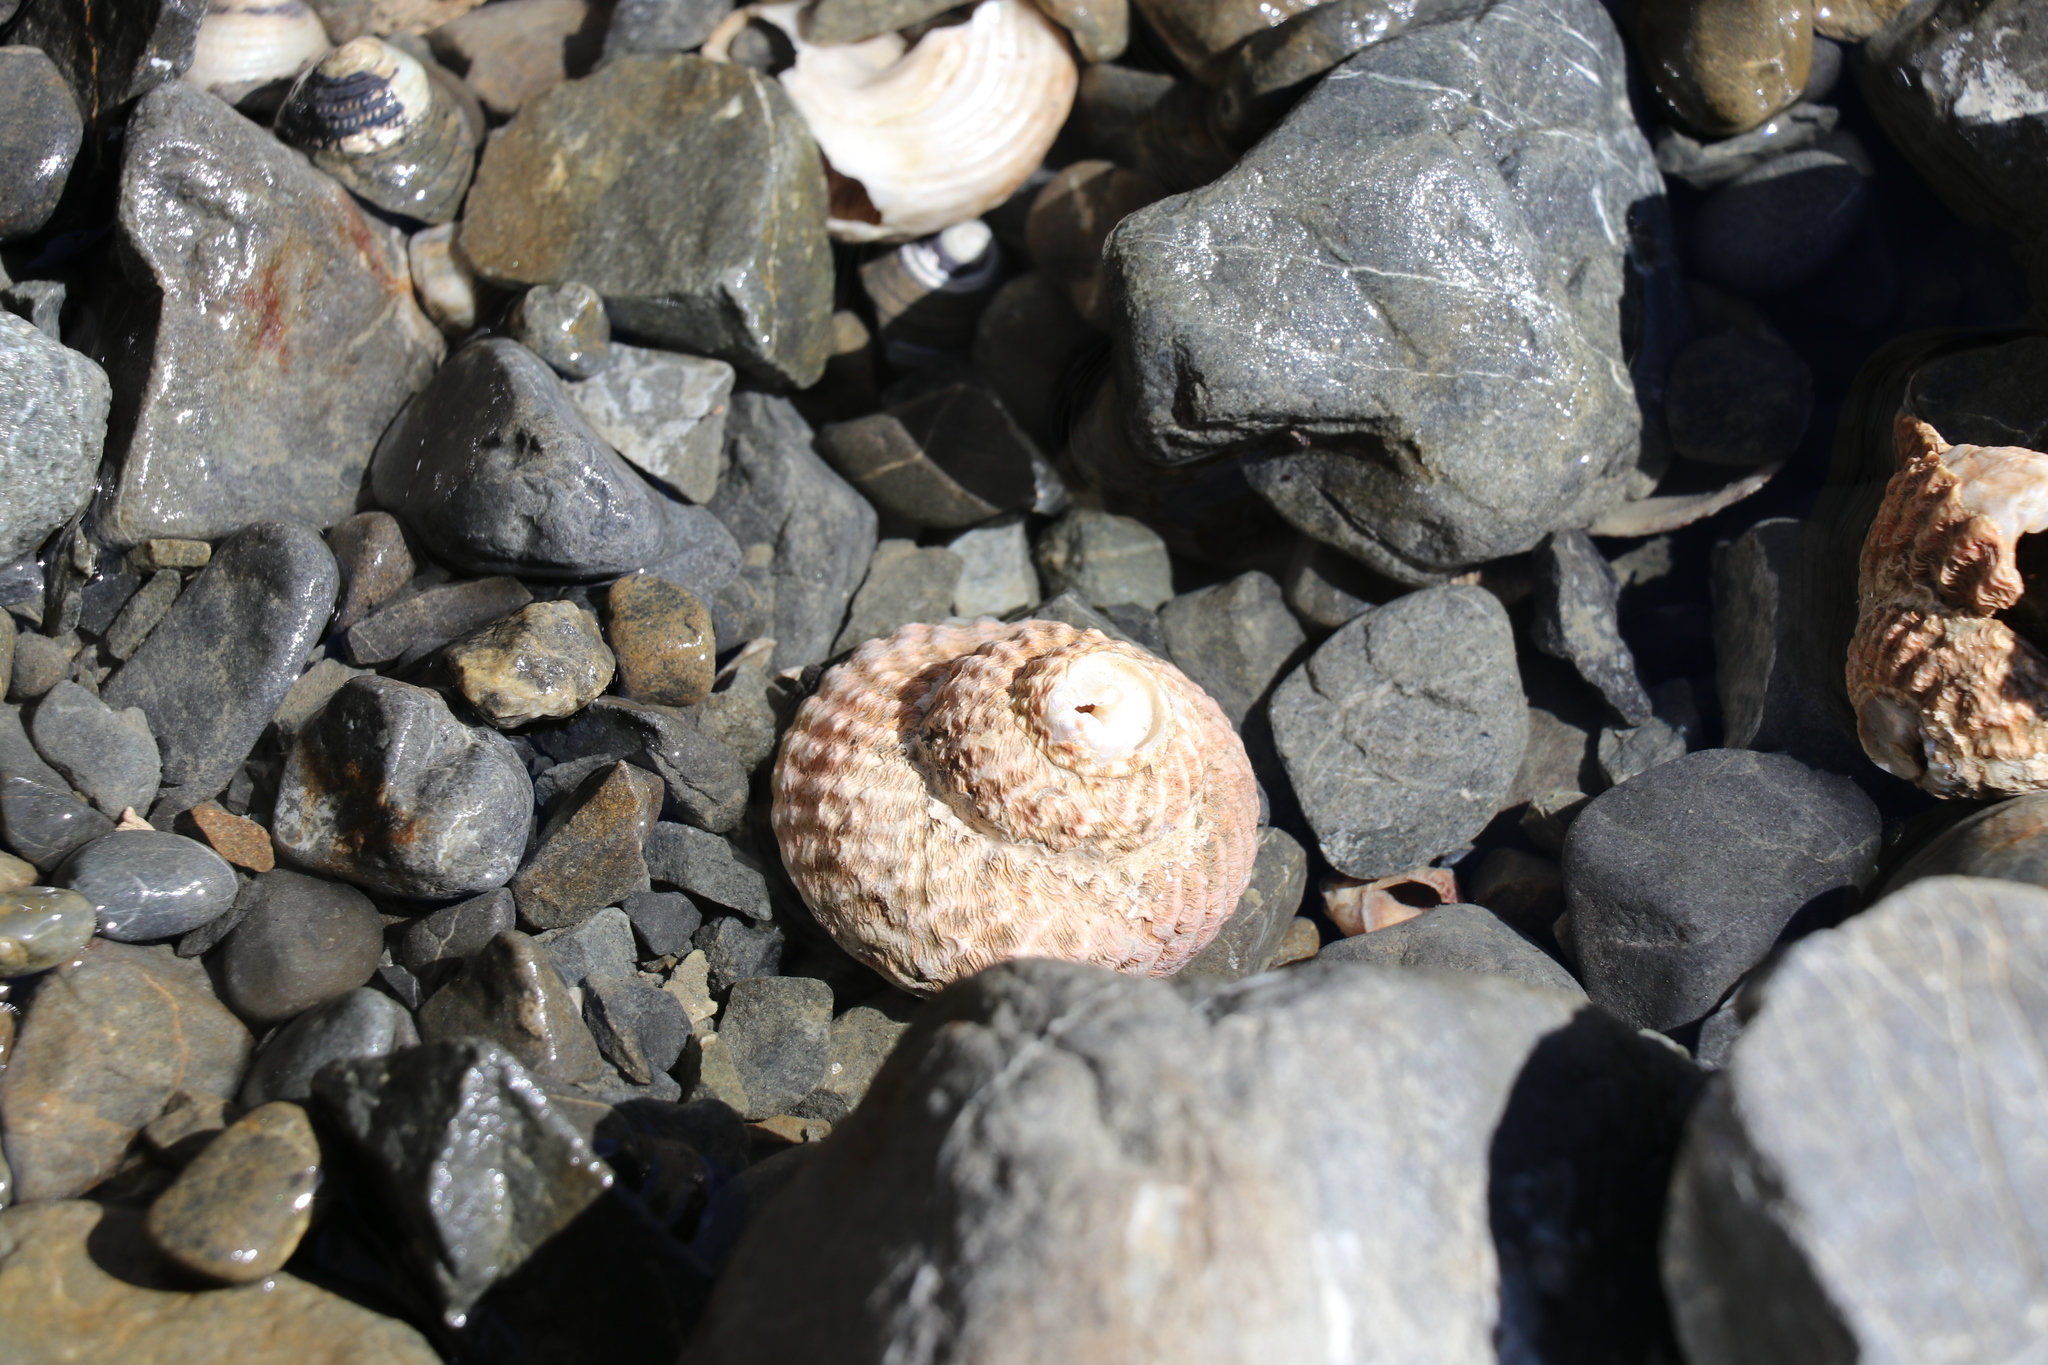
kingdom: Animalia
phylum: Mollusca
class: Gastropoda
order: Trochida
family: Turbinidae
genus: Cookia
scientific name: Cookia sulcata
